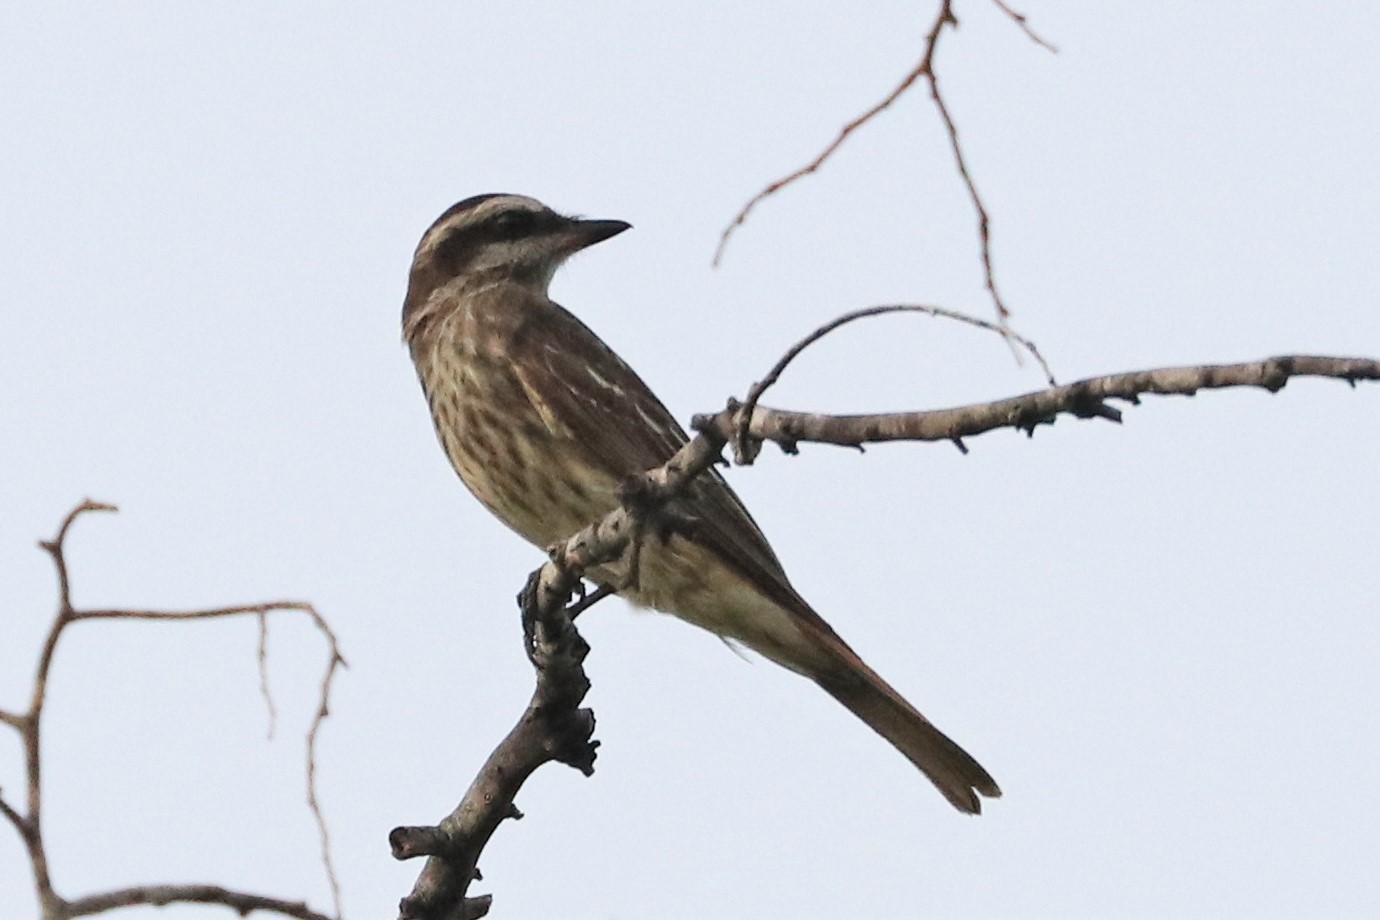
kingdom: Animalia
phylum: Chordata
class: Aves
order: Passeriformes
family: Tyrannidae
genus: Empidonomus
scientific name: Empidonomus varius
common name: Variegated flycatcher
